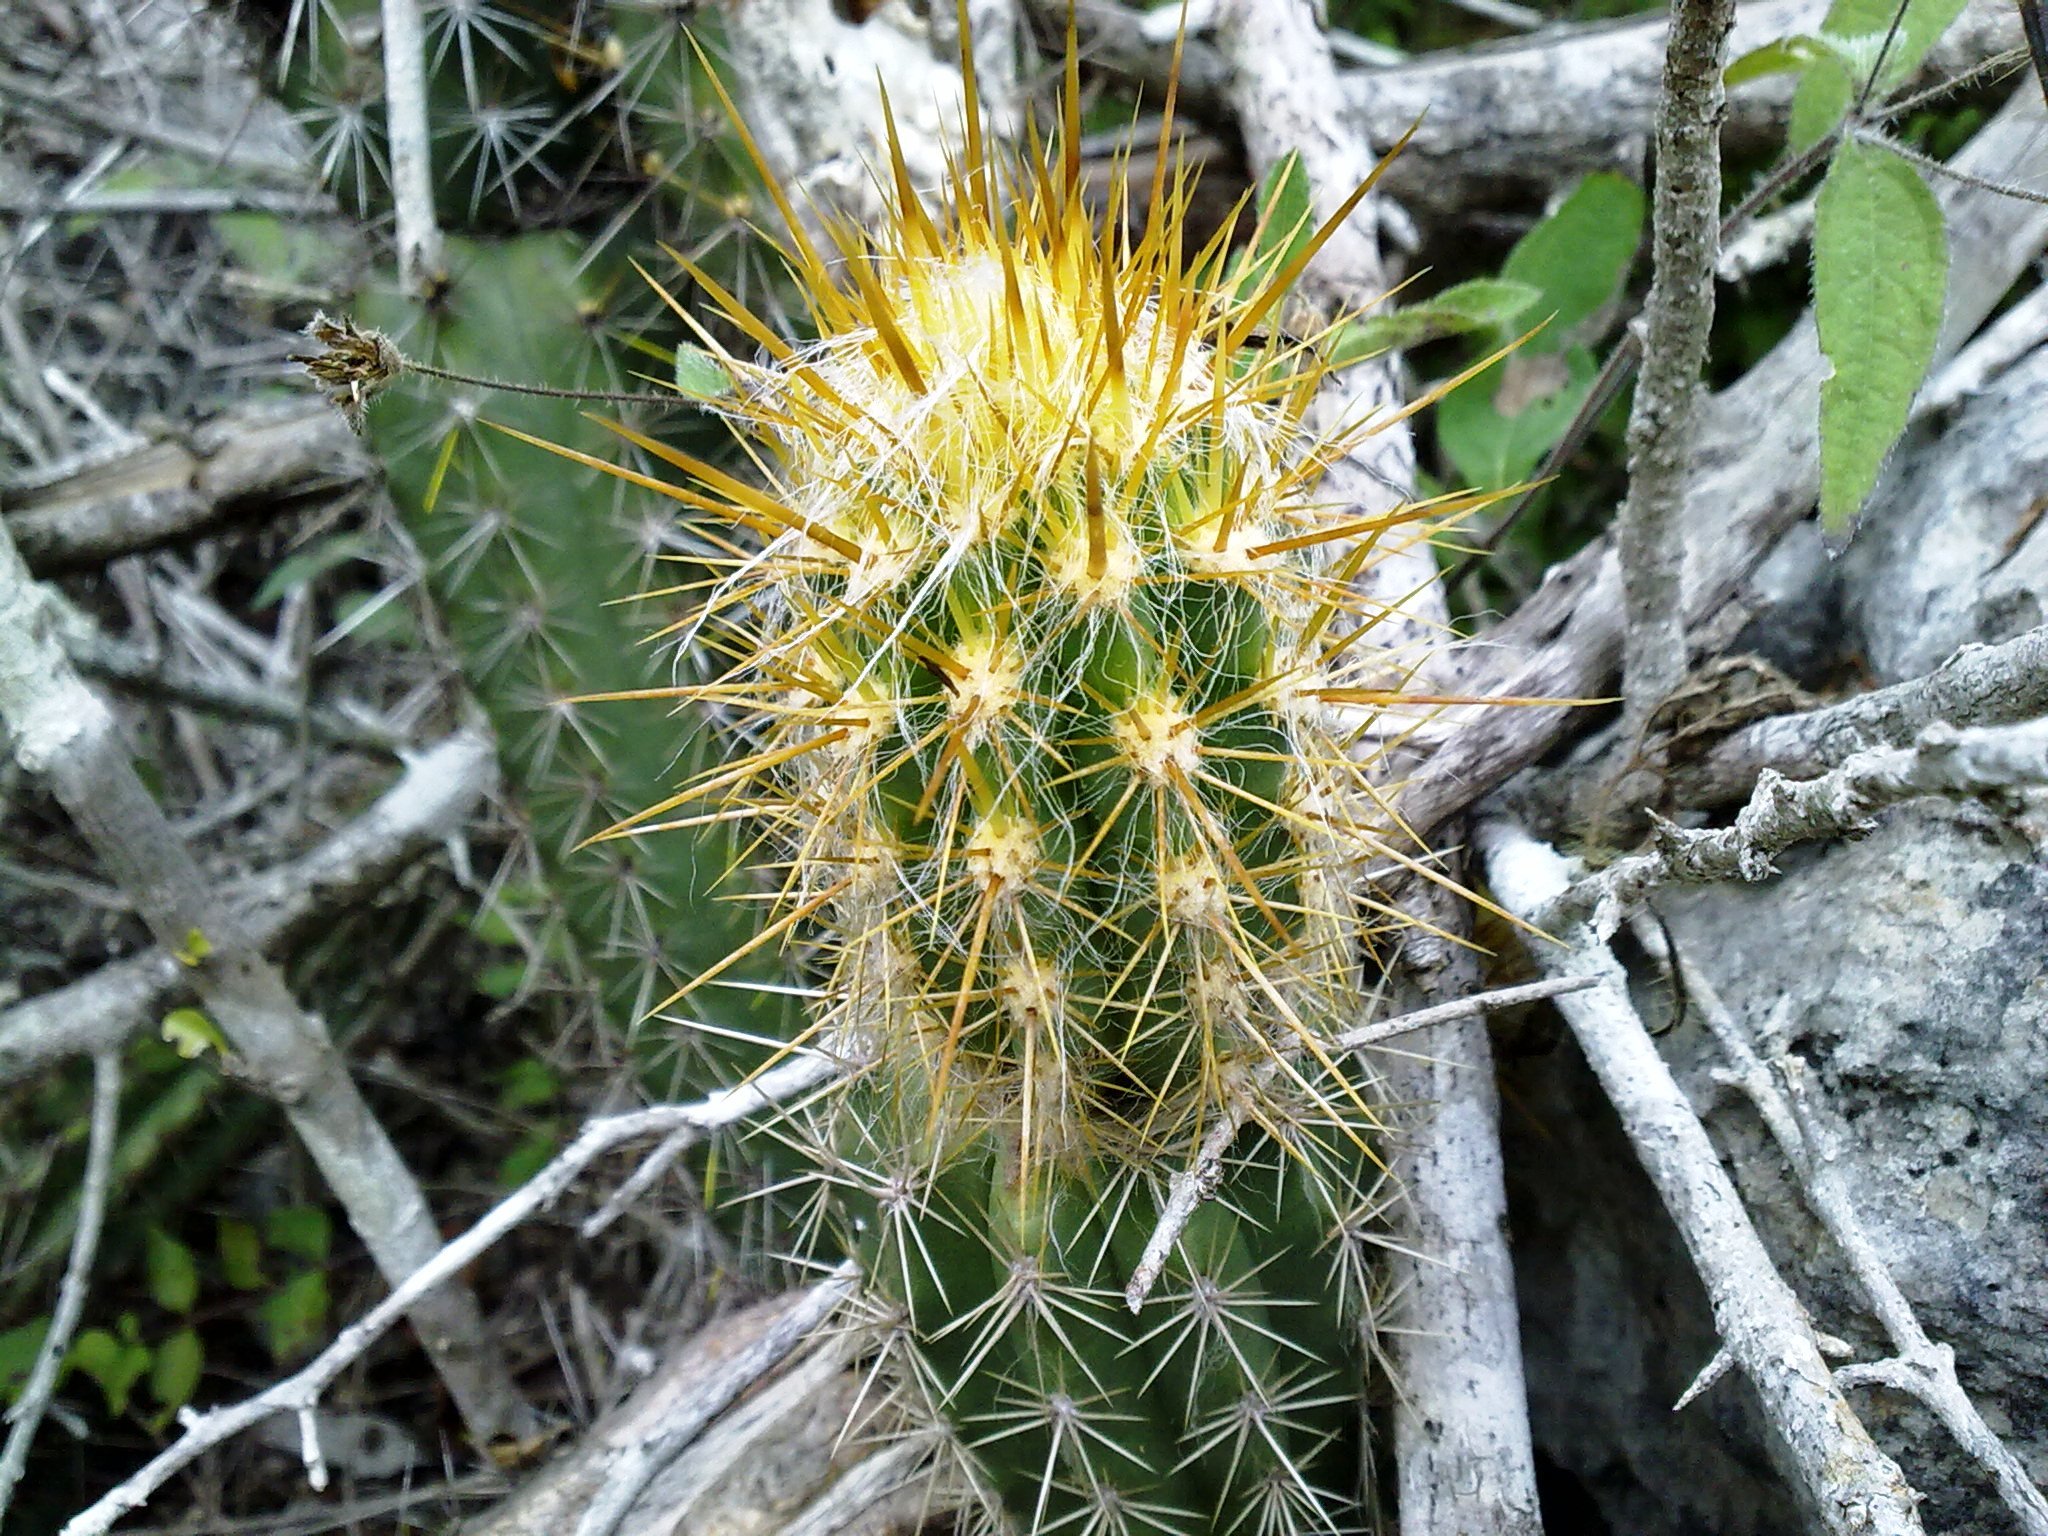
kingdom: Plantae
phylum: Tracheophyta
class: Magnoliopsida
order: Caryophyllales
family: Cactaceae
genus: Pilosocereus
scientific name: Pilosocereus gaumeri
